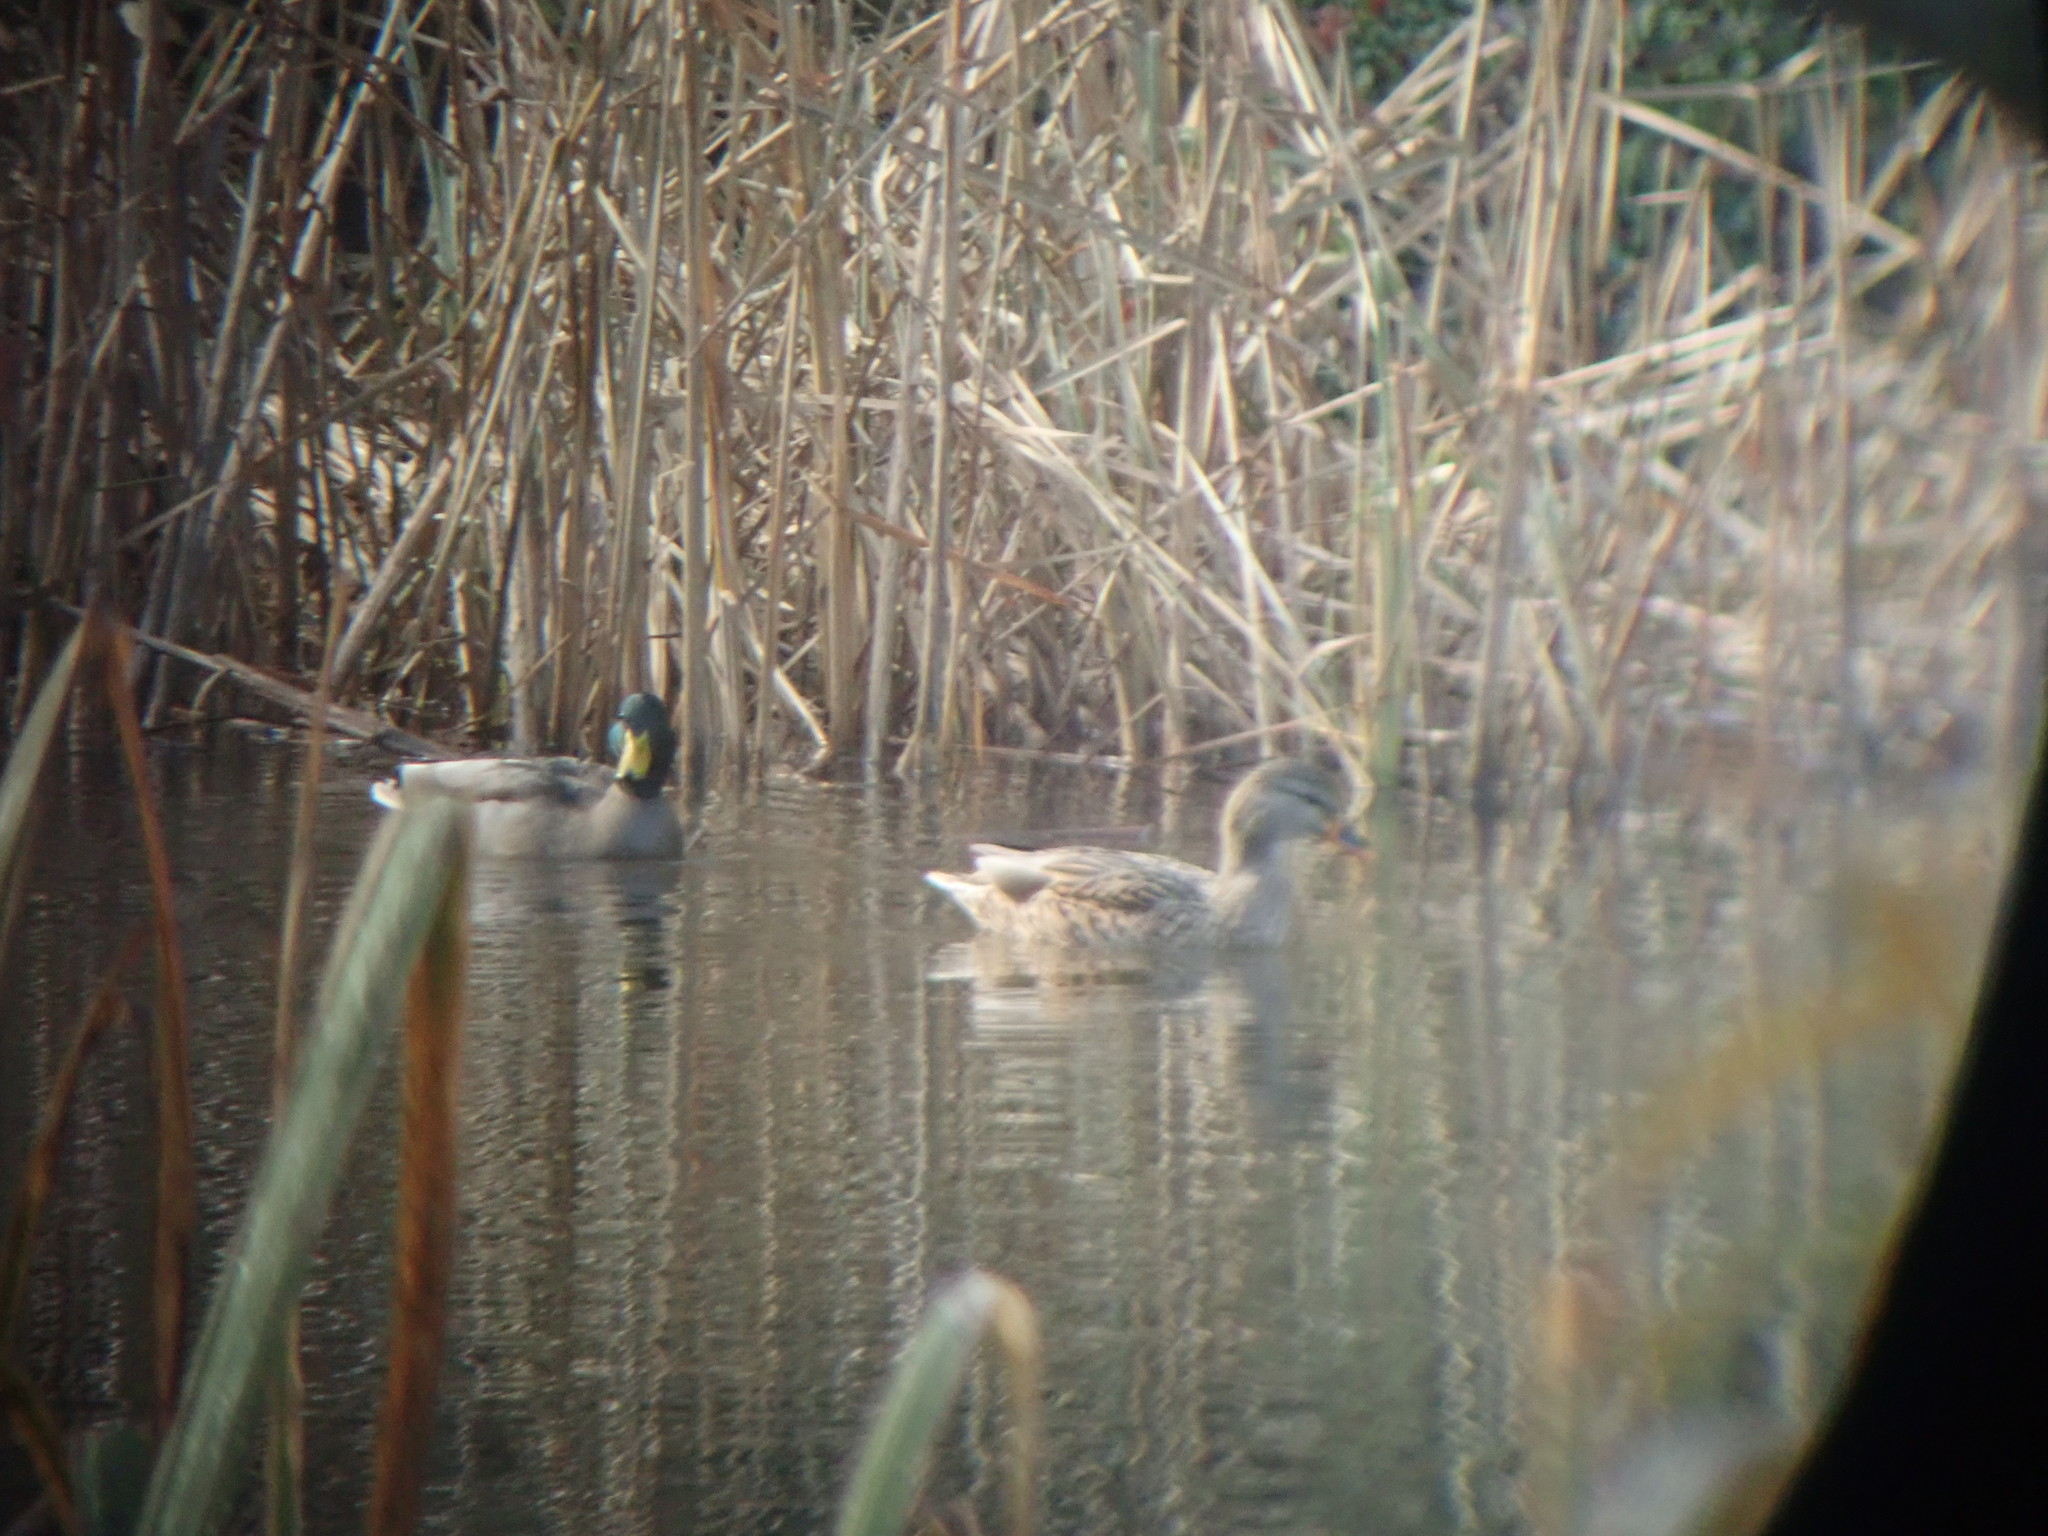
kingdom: Animalia
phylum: Chordata
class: Aves
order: Anseriformes
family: Anatidae
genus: Anas
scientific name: Anas platyrhynchos
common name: Mallard
